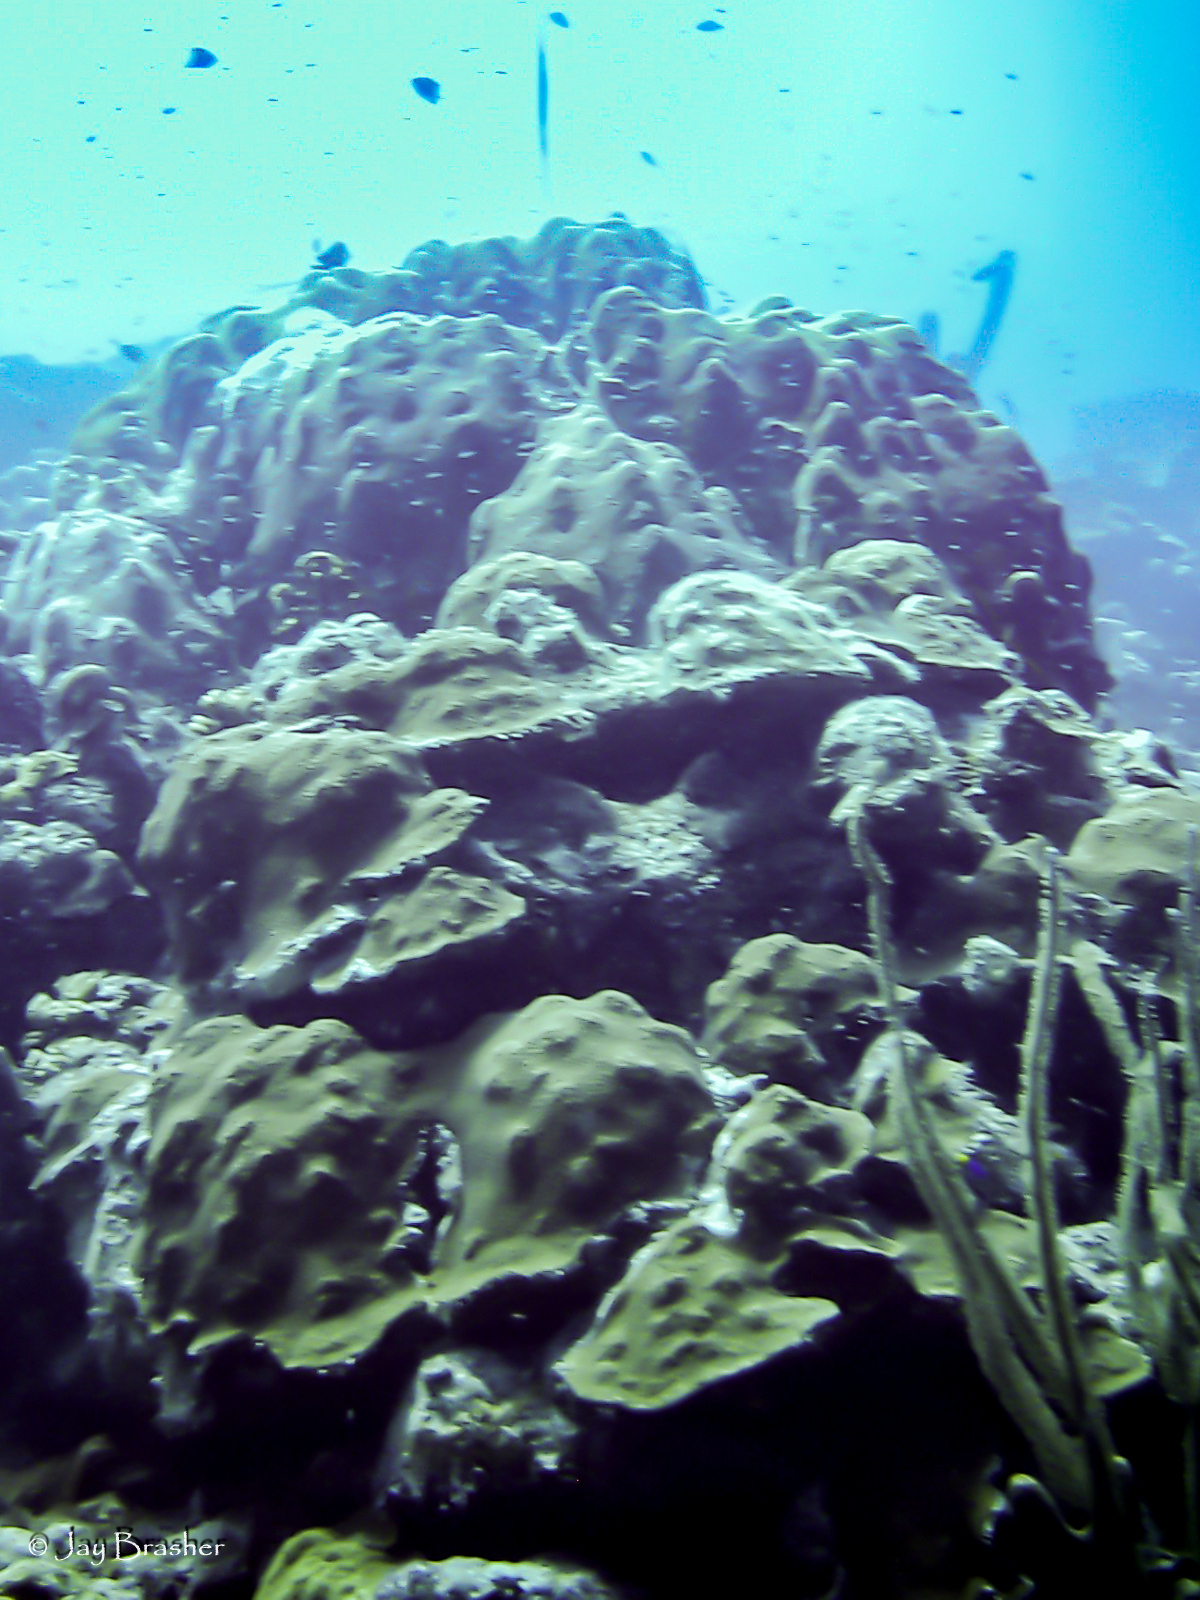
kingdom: Animalia
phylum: Cnidaria
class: Anthozoa
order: Scleractinia
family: Merulinidae
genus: Orbicella
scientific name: Orbicella faveolata
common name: Mountainous star coral
